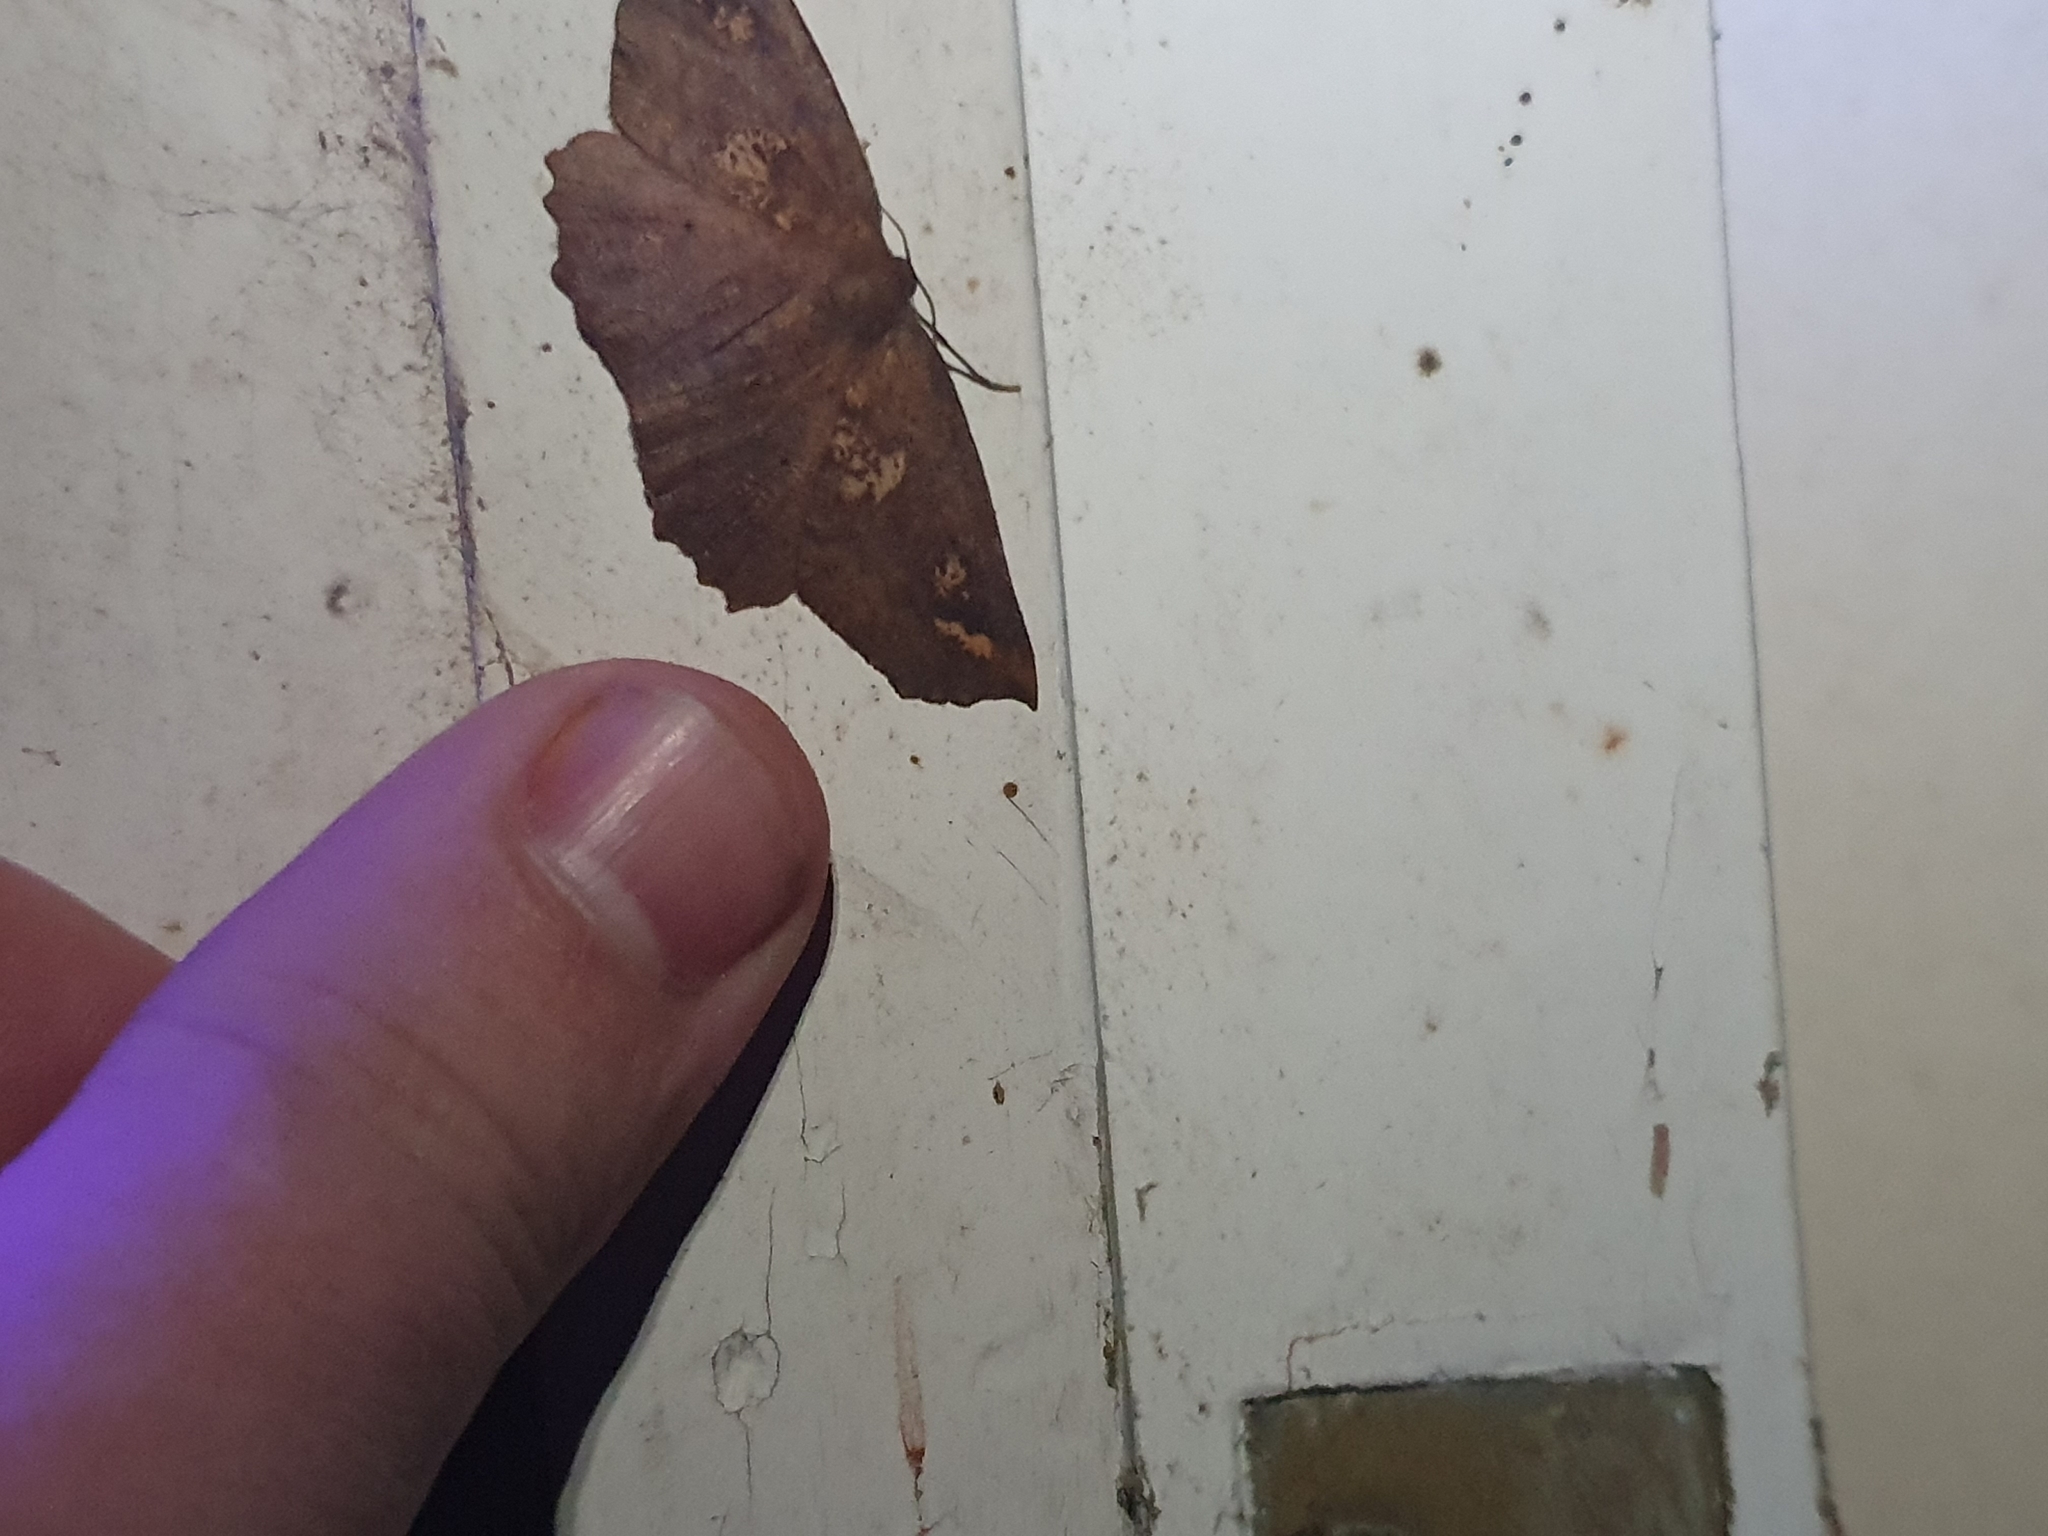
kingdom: Animalia
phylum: Arthropoda
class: Insecta
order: Lepidoptera
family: Geometridae
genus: Xyridacma
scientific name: Xyridacma ustaria
